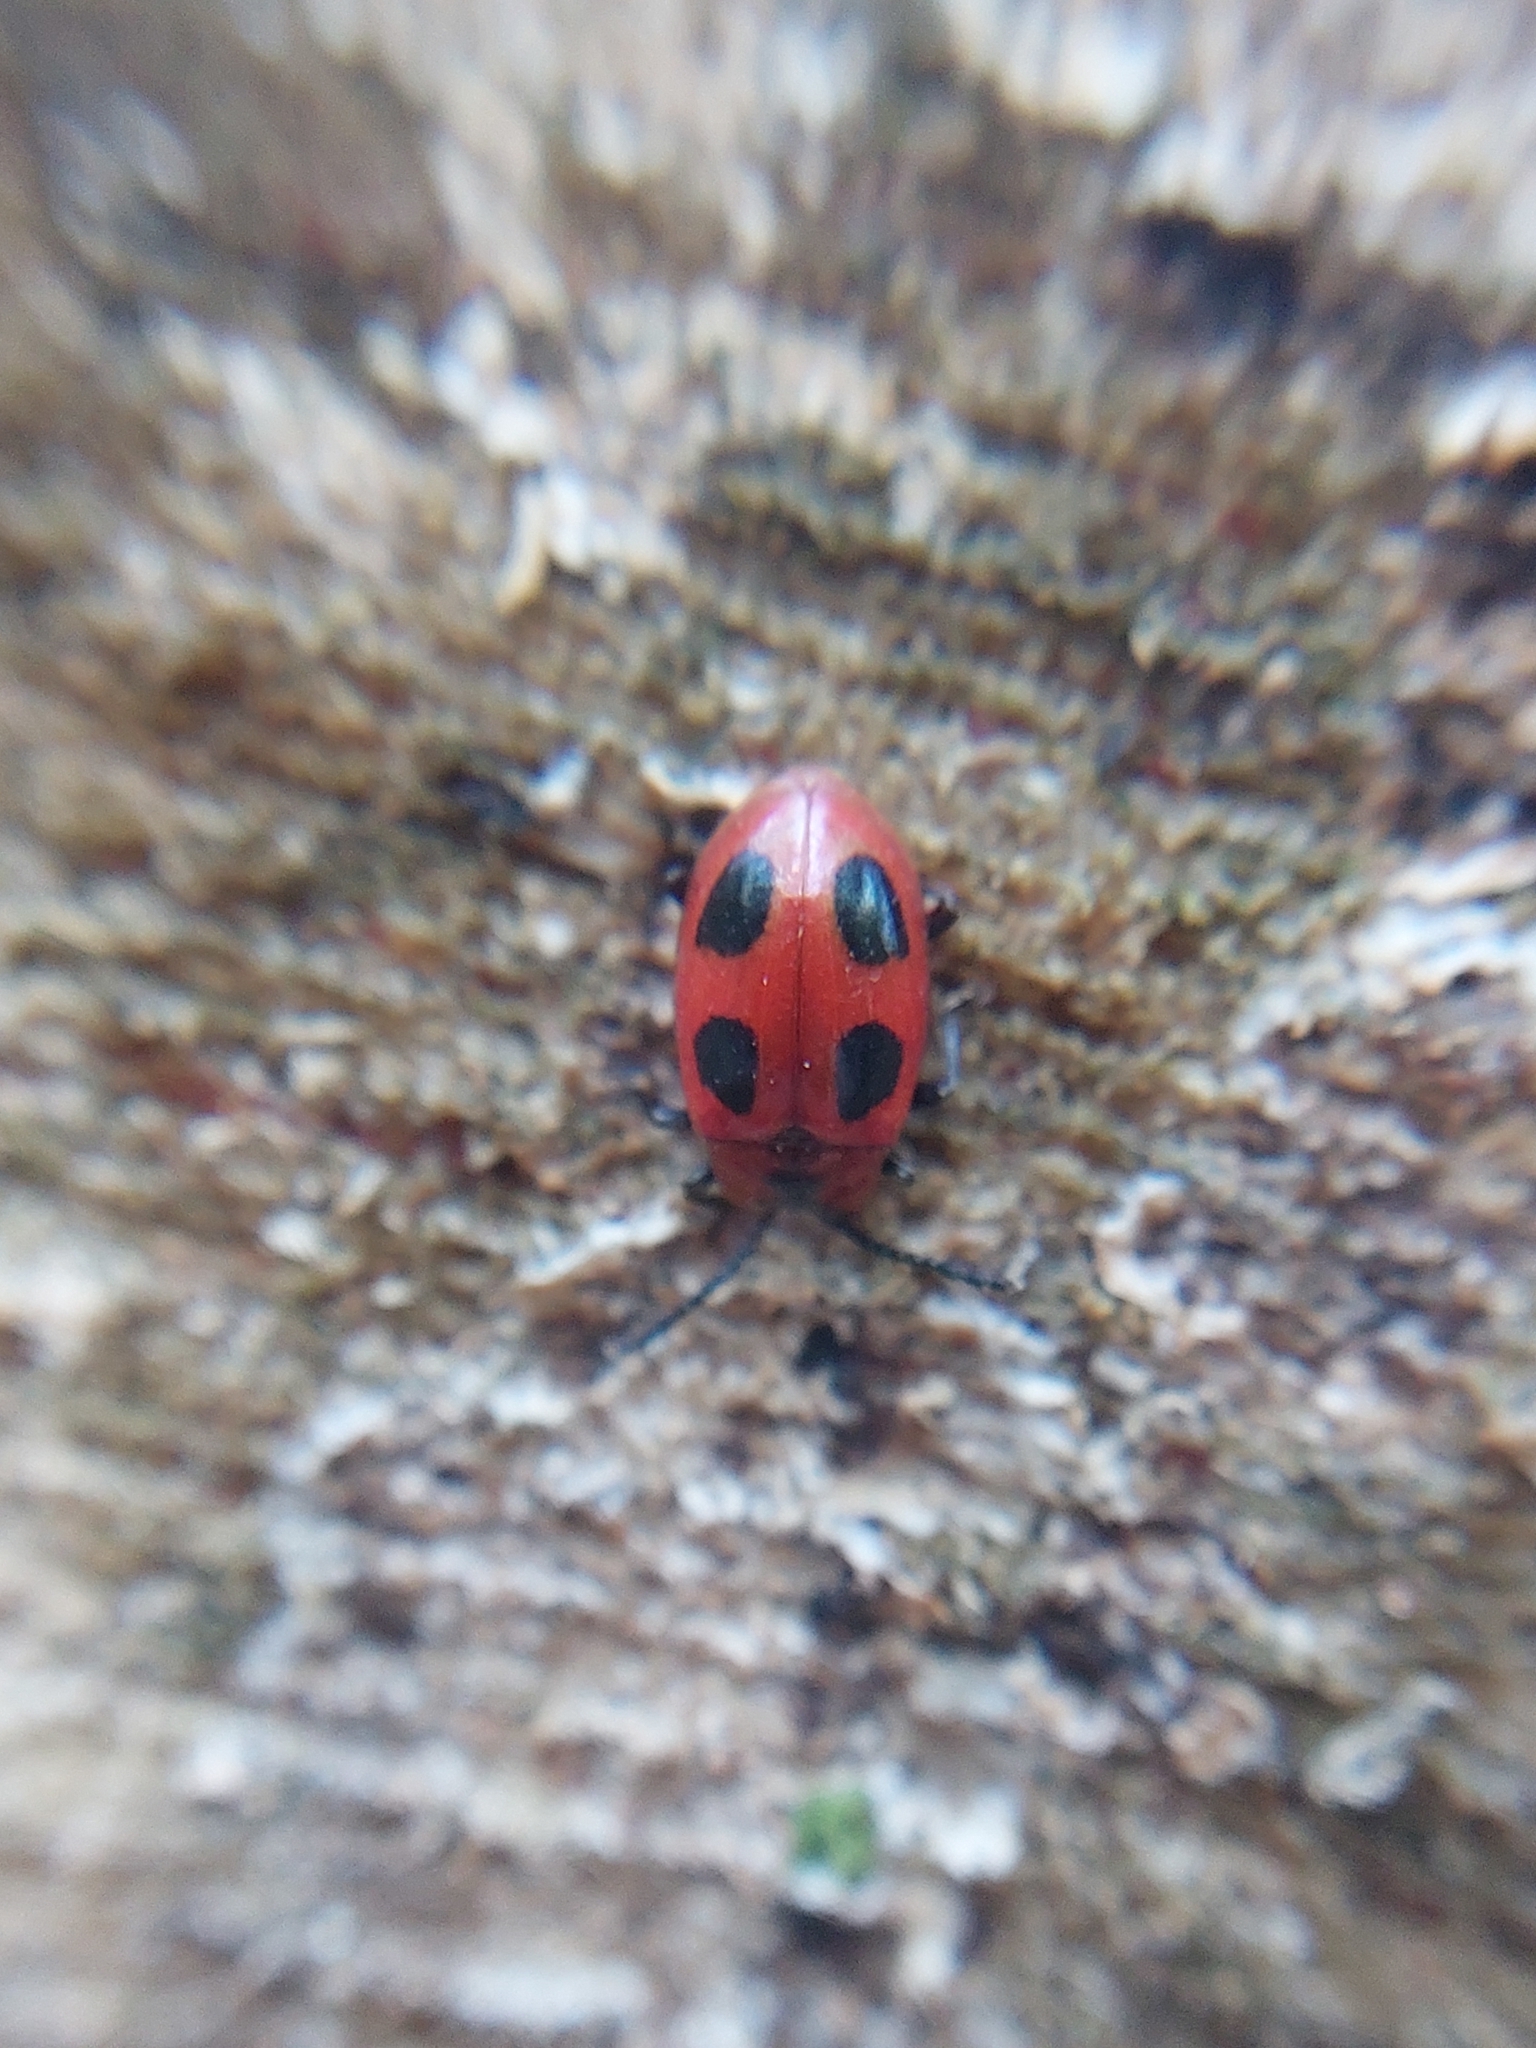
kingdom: Animalia
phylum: Arthropoda
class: Insecta
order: Coleoptera
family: Endomychidae
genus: Endomychus
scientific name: Endomychus coccineus
